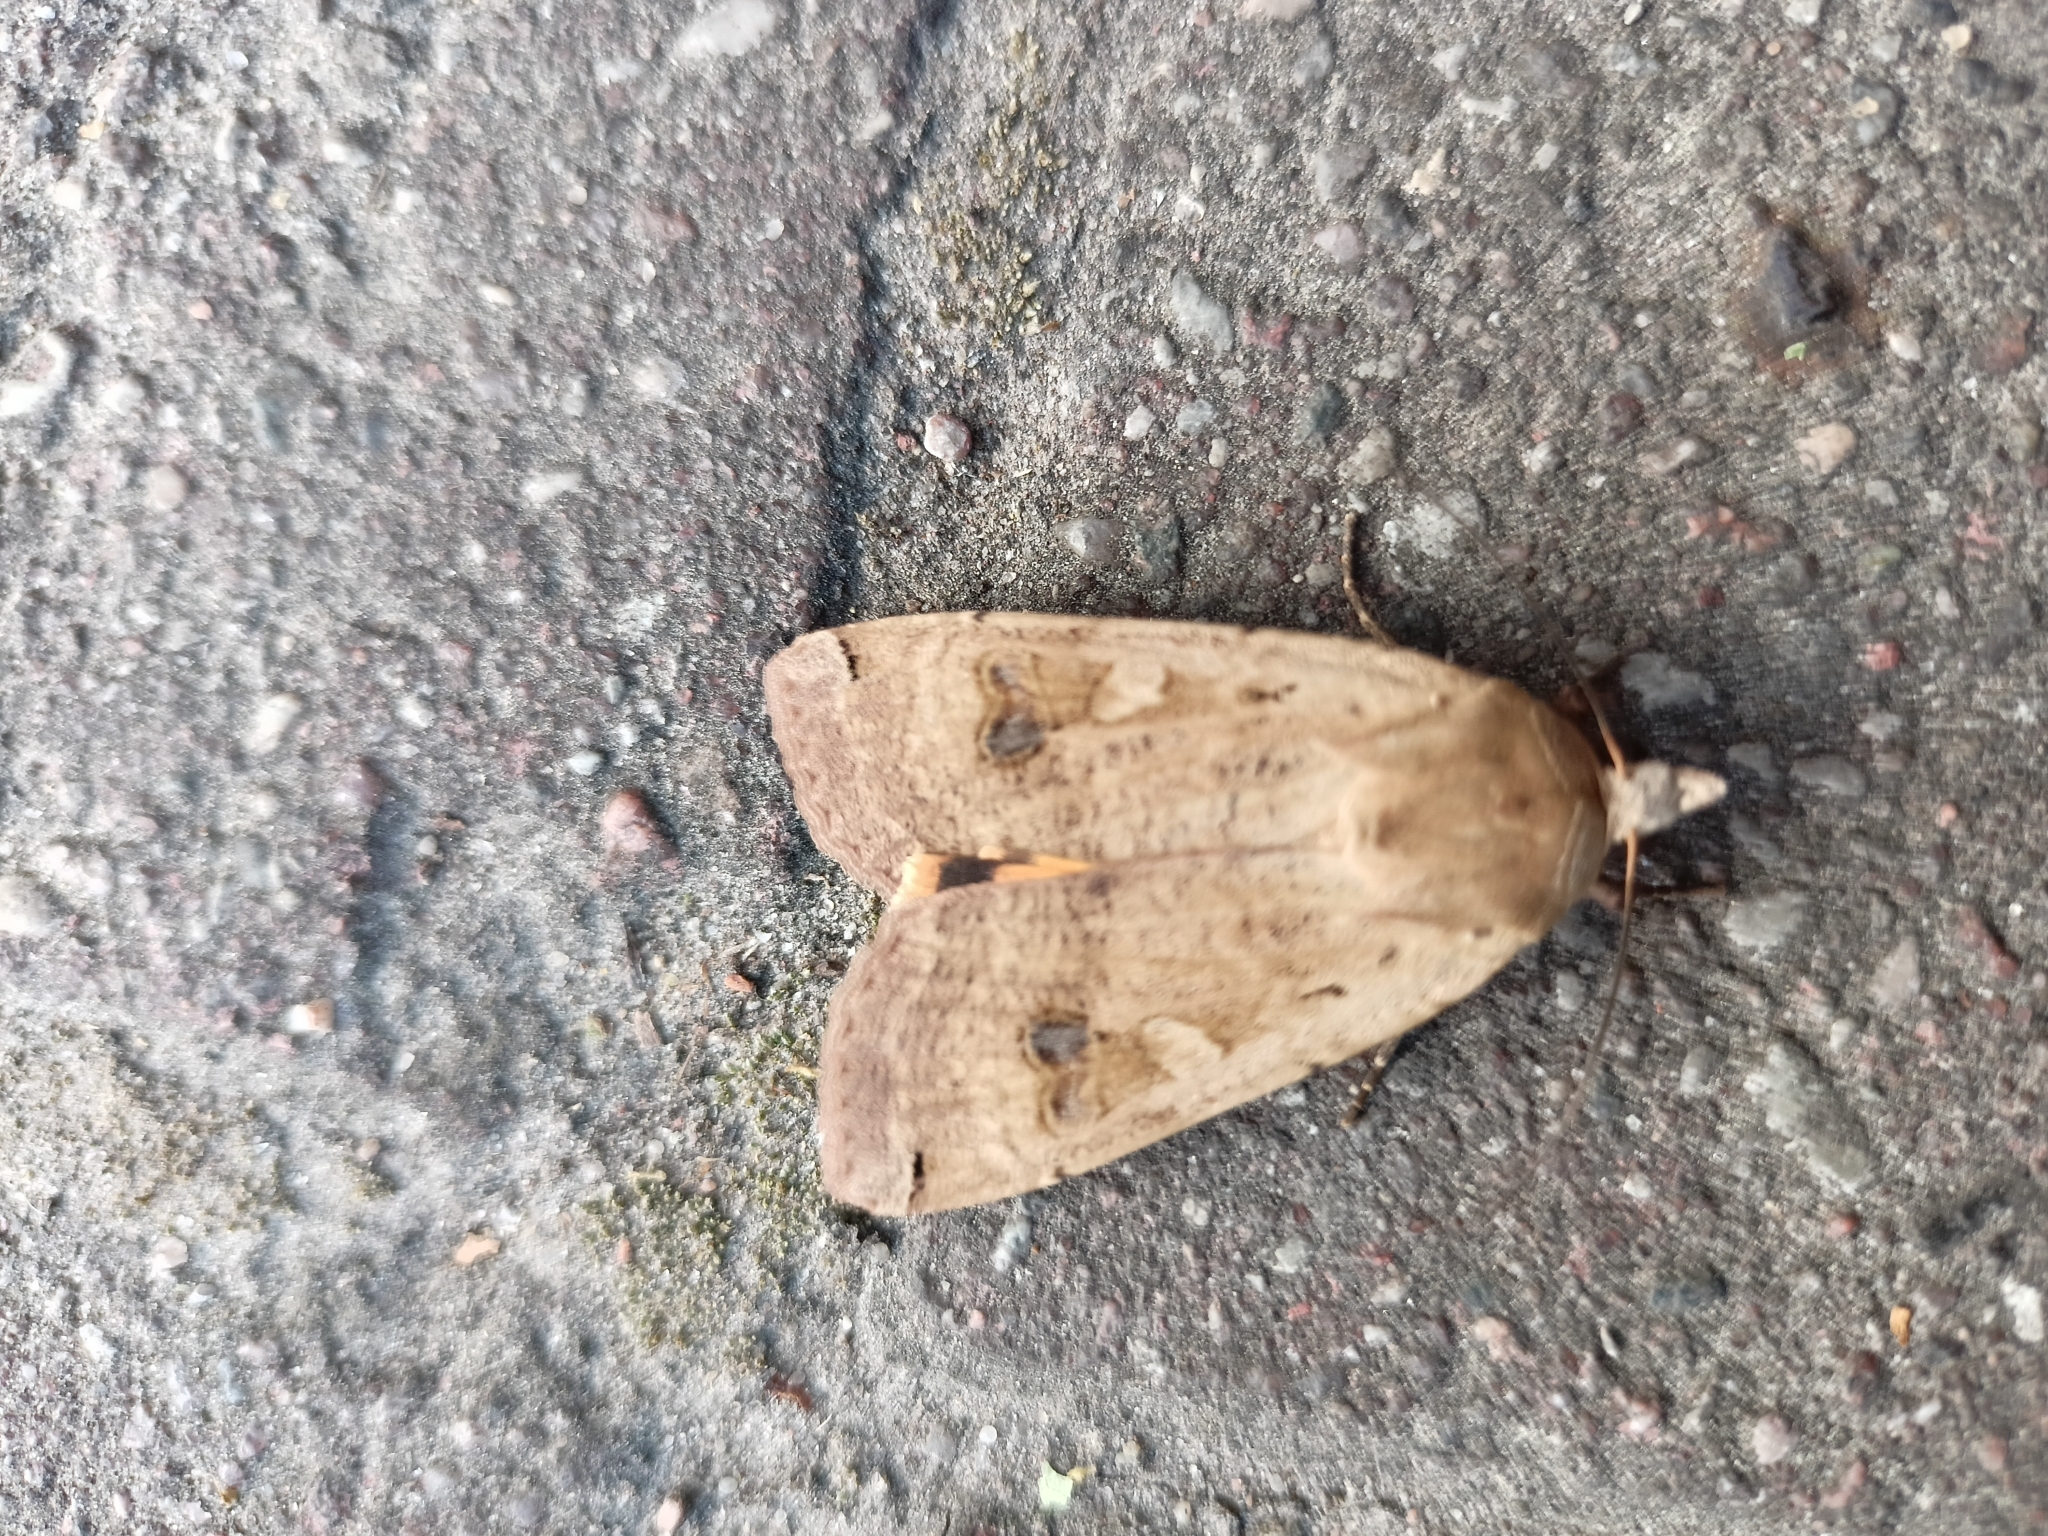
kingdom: Animalia
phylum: Arthropoda
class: Insecta
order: Lepidoptera
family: Noctuidae
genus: Noctua
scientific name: Noctua pronuba
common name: Large yellow underwing
